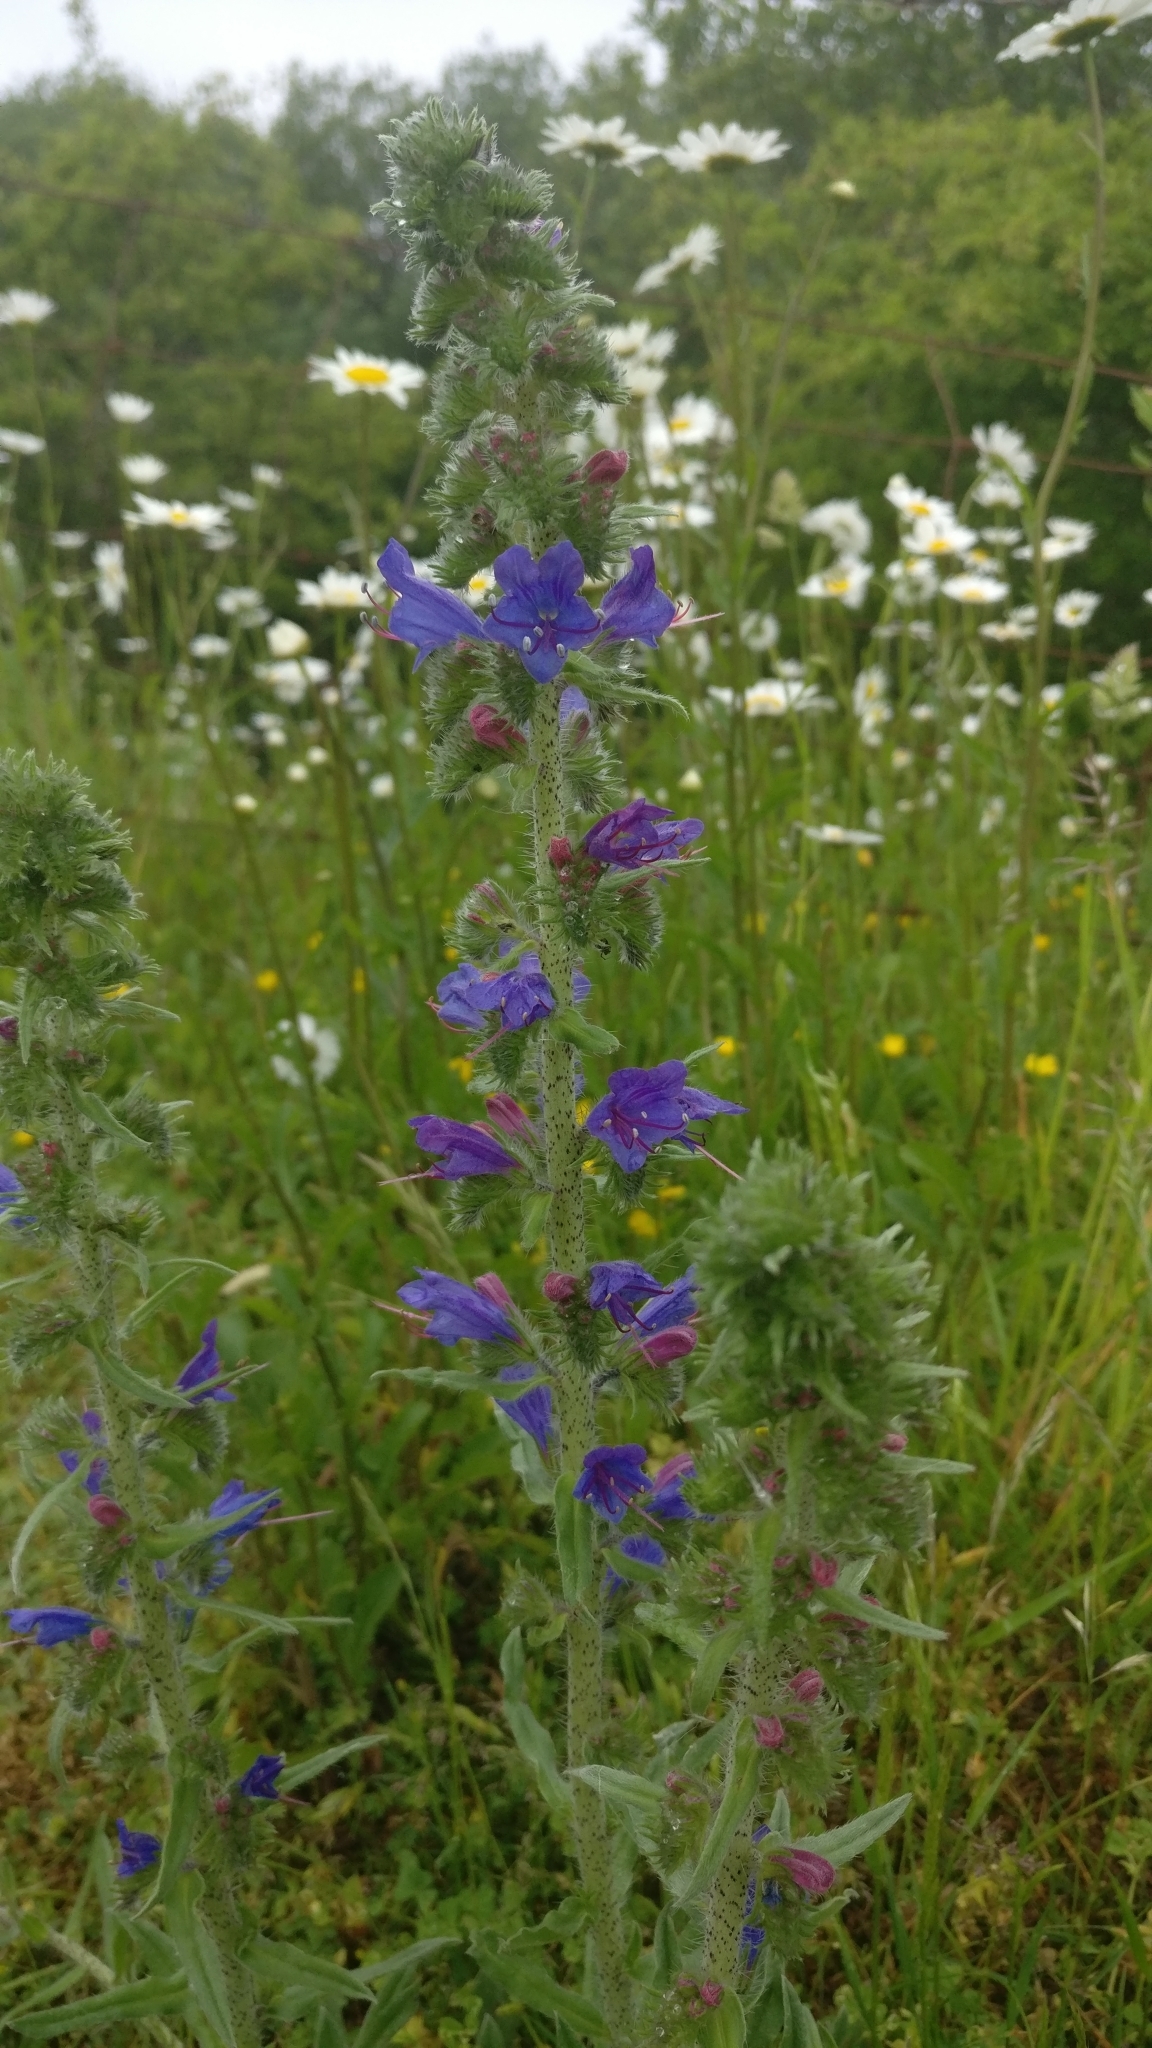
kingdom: Plantae
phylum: Tracheophyta
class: Magnoliopsida
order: Boraginales
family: Boraginaceae
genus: Echium
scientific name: Echium vulgare
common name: Common viper's bugloss
